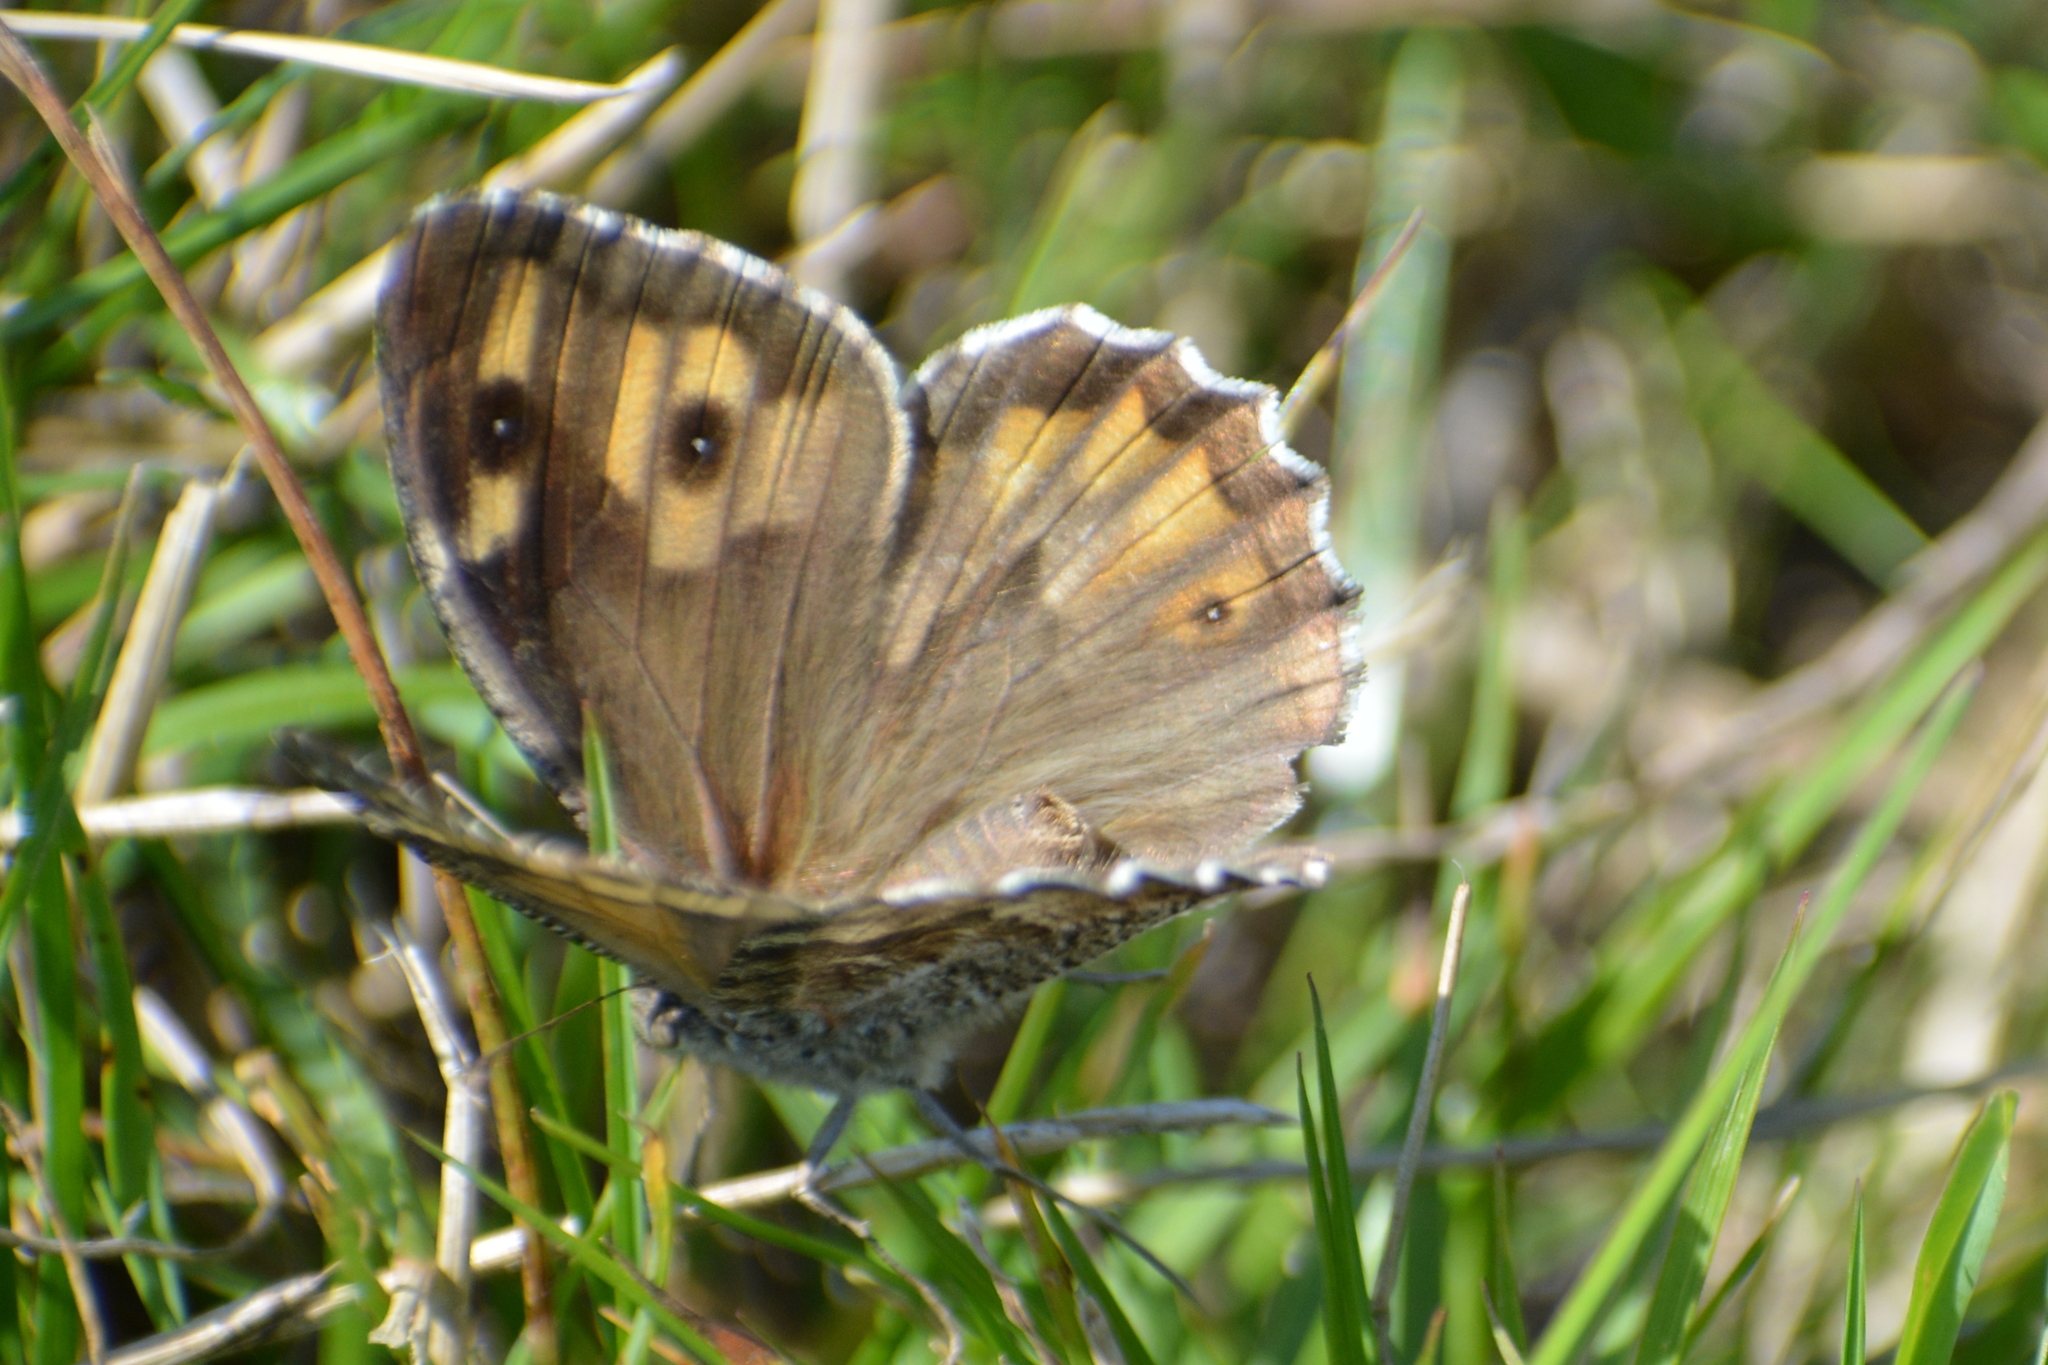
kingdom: Animalia
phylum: Arthropoda
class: Insecta
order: Lepidoptera
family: Nymphalidae
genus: Hipparchia
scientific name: Hipparchia semele
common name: Grayling
